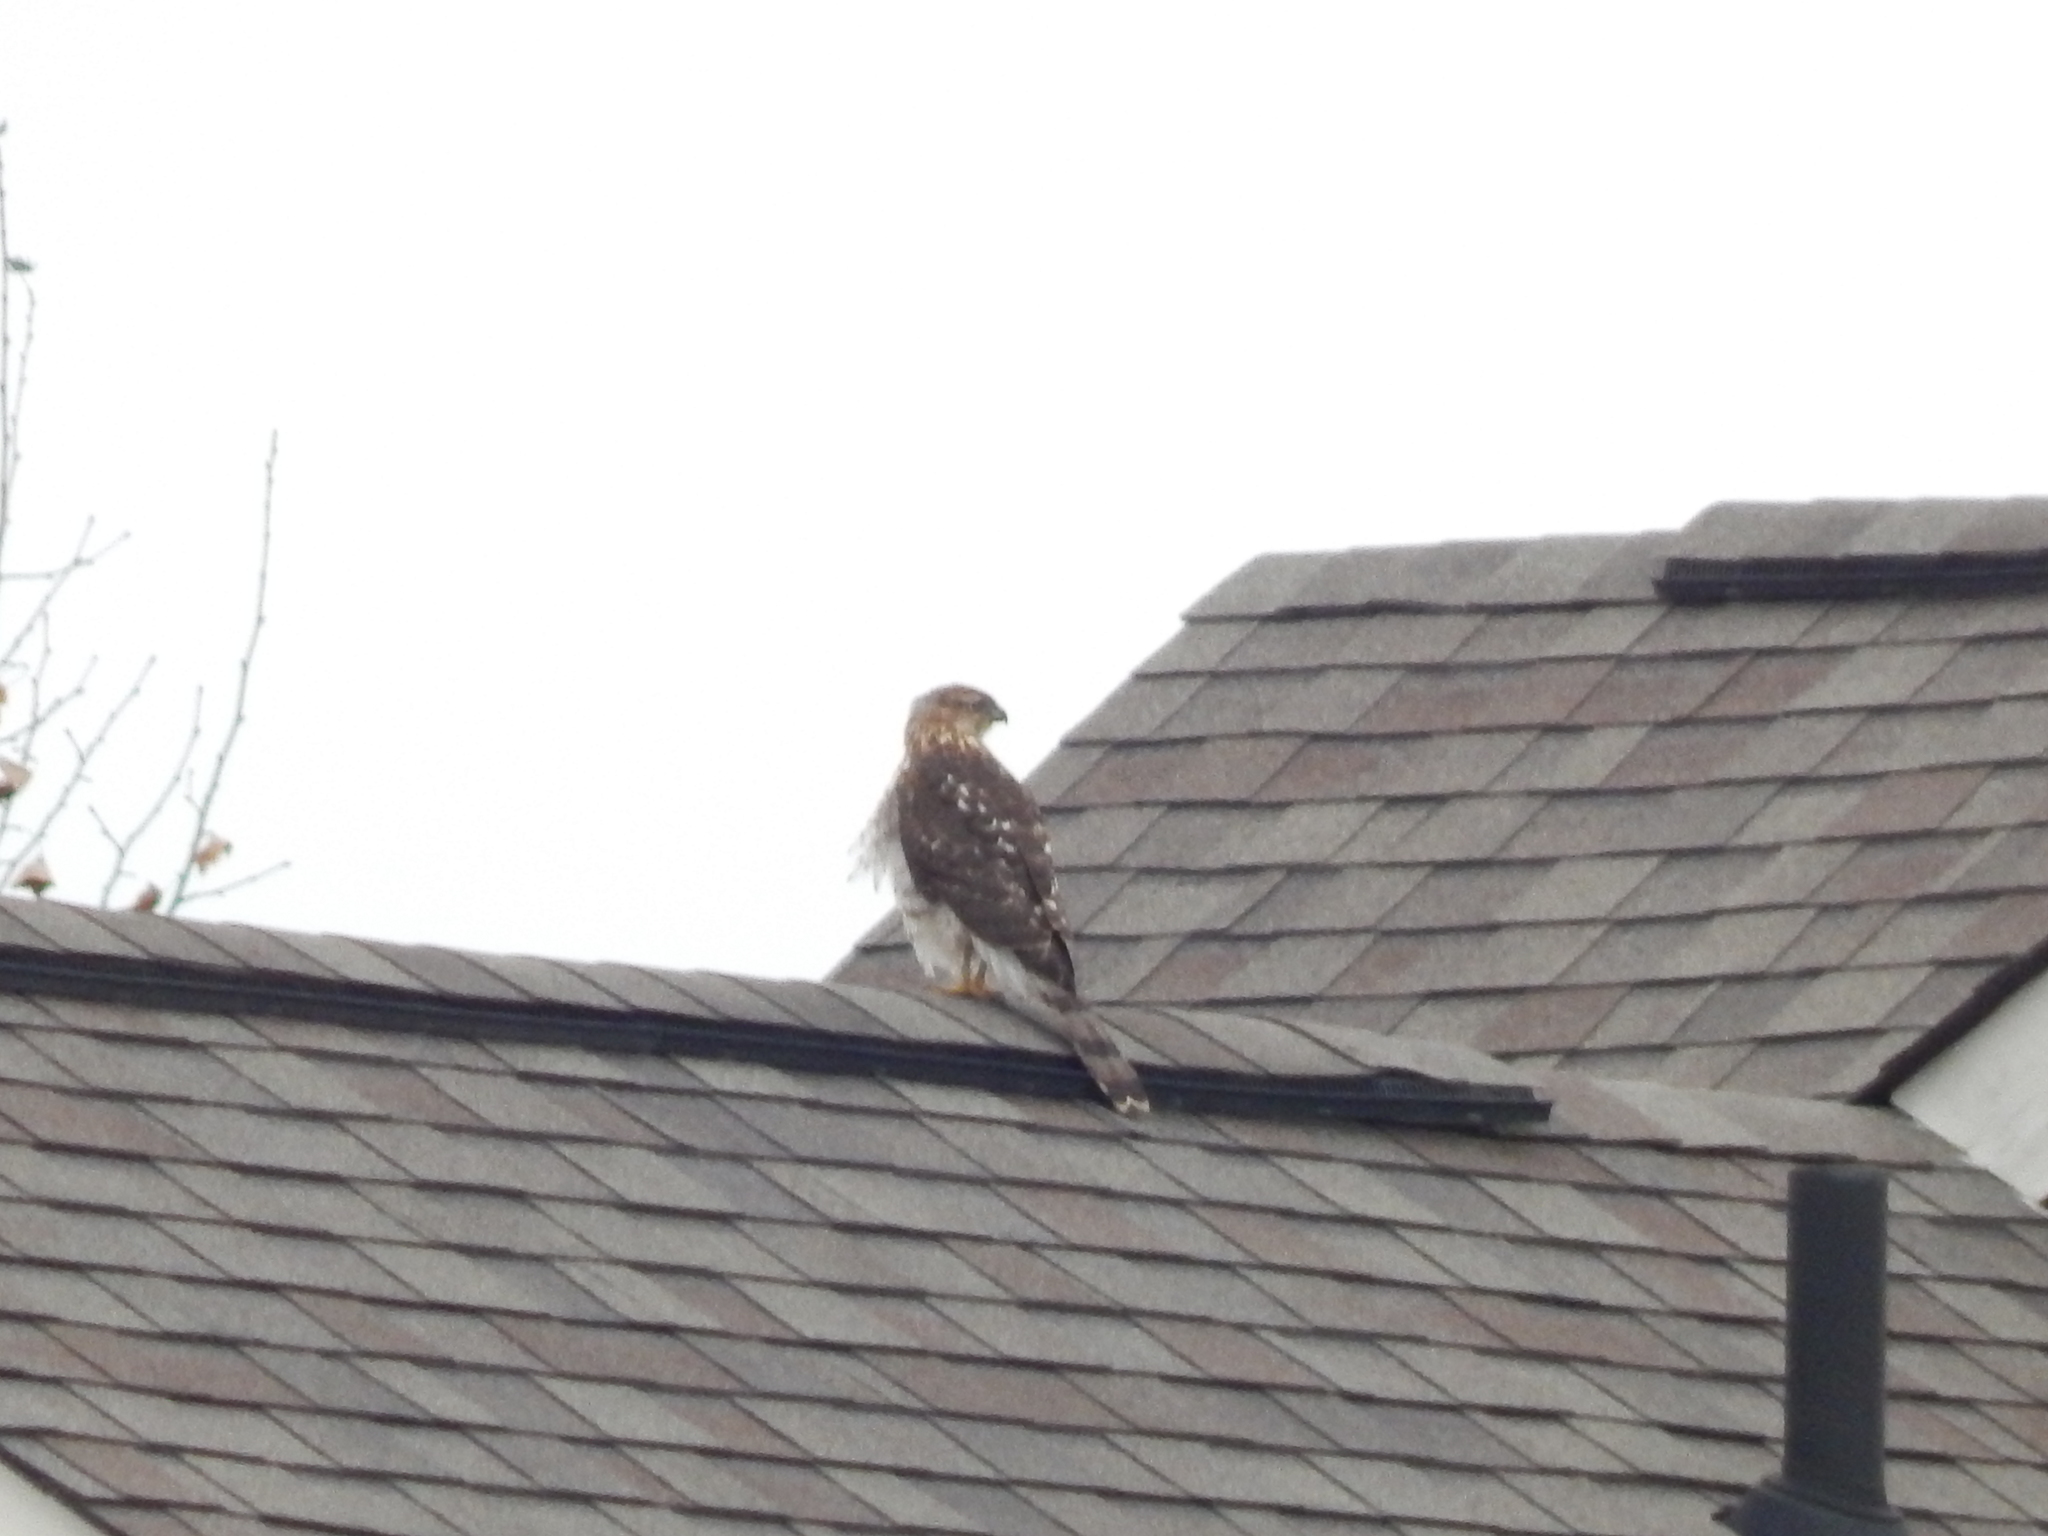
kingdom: Animalia
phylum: Chordata
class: Aves
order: Accipitriformes
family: Accipitridae
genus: Accipiter
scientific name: Accipiter cooperii
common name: Cooper's hawk
